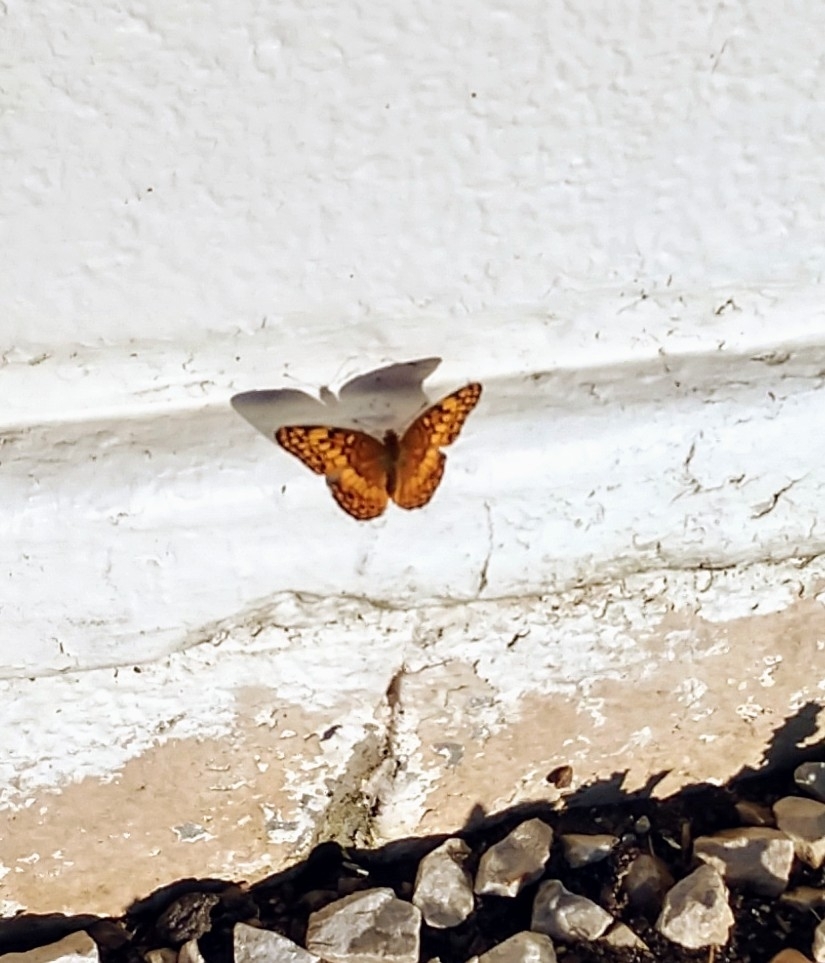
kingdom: Animalia
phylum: Arthropoda
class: Insecta
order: Lepidoptera
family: Nymphalidae
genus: Euptoieta
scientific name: Euptoieta claudia
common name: Variegated fritillary
